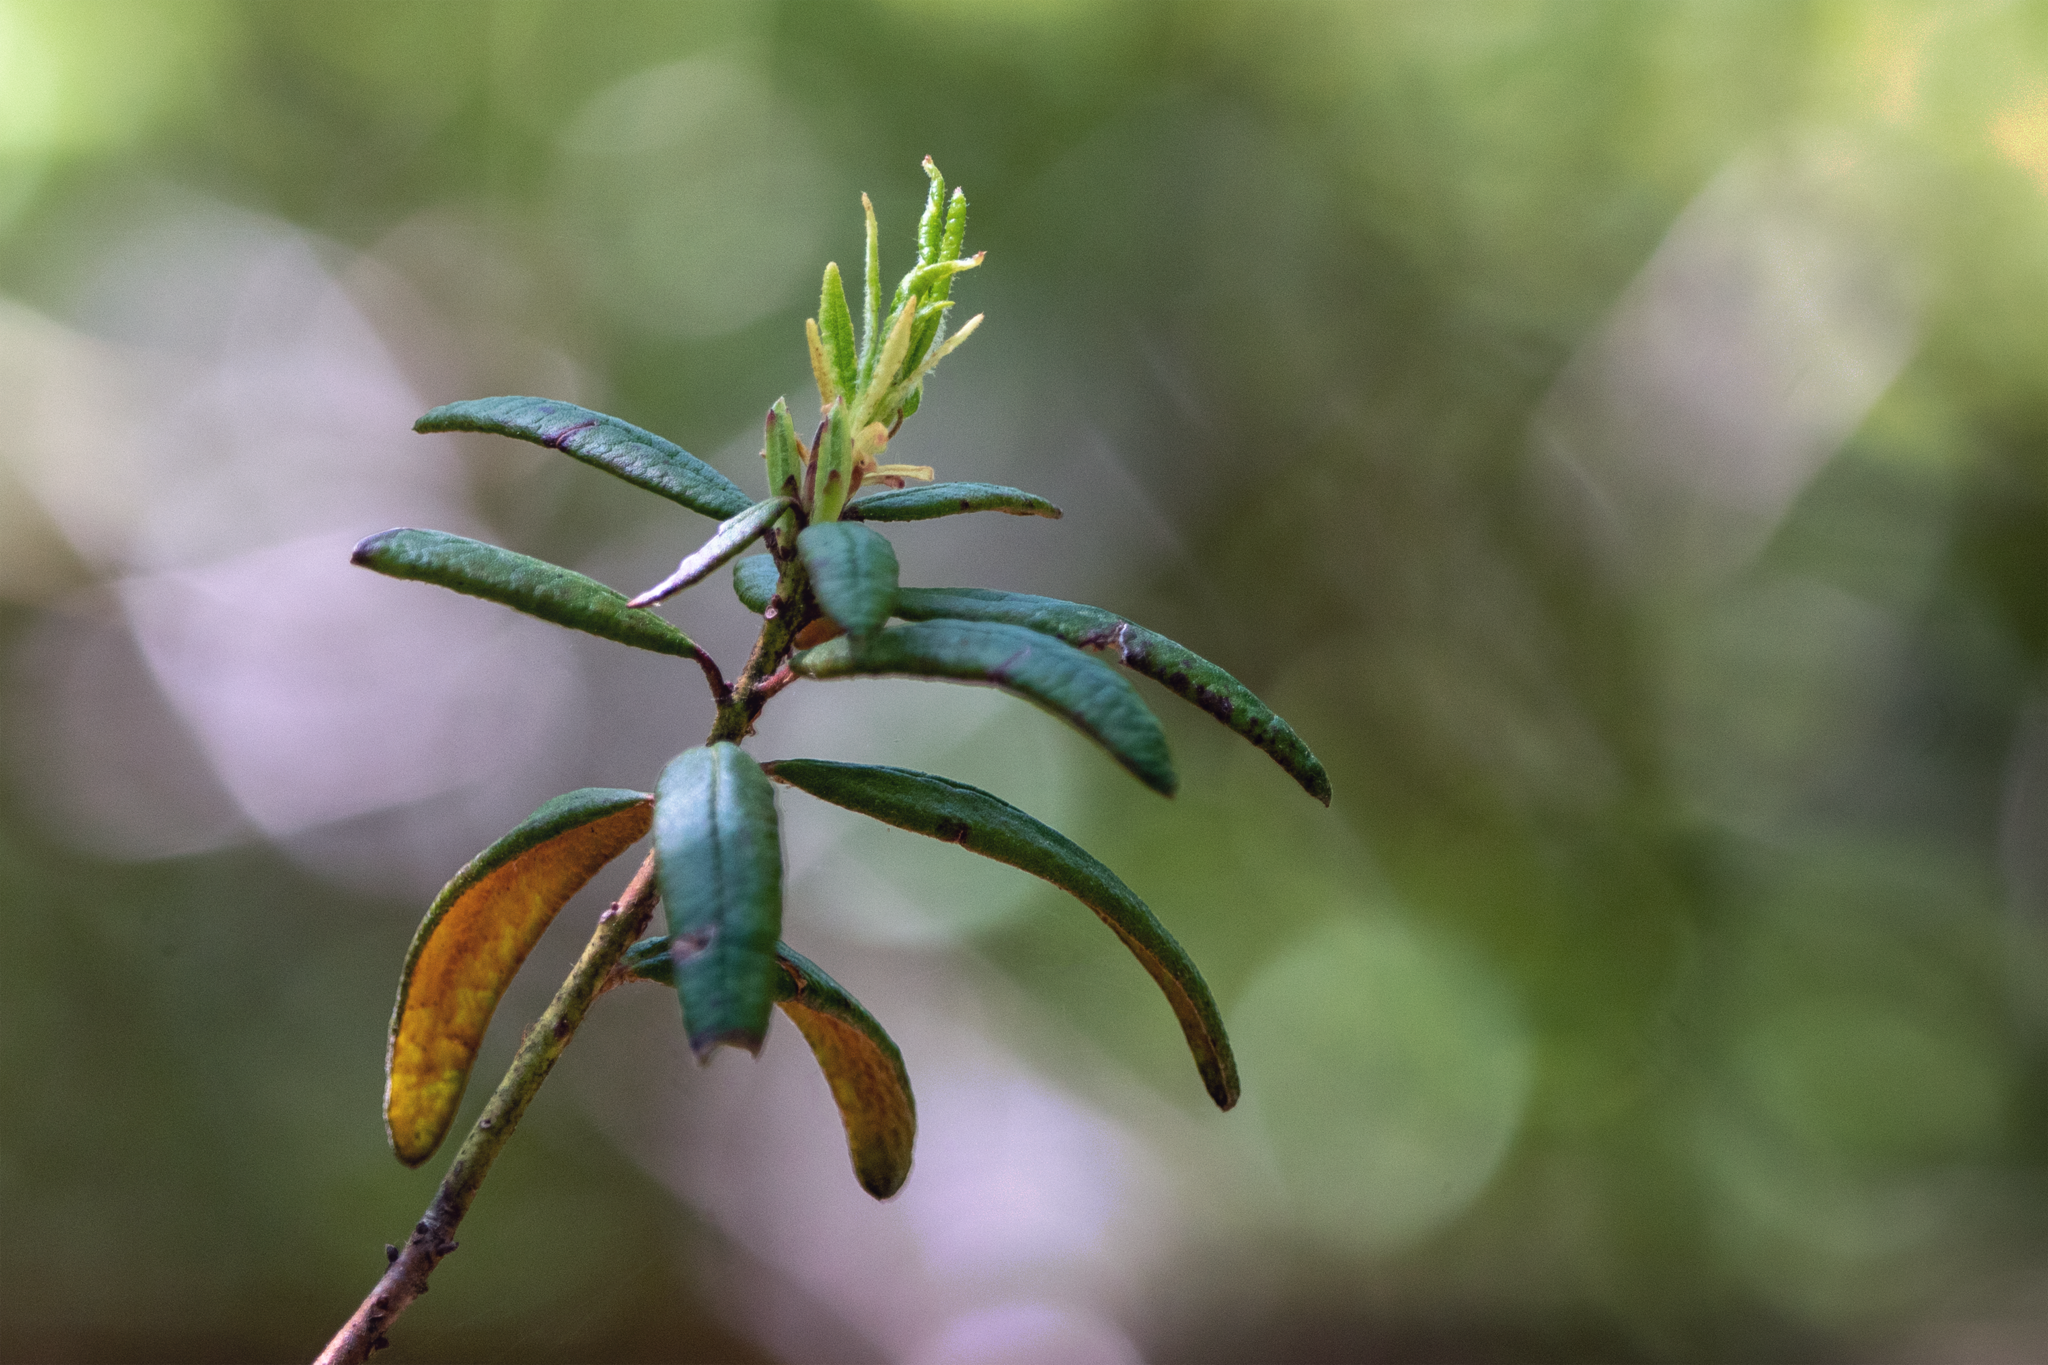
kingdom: Plantae
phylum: Tracheophyta
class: Magnoliopsida
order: Ericales
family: Ericaceae
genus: Rhododendron
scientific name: Rhododendron groenlandicum
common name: Bog labrador tea
